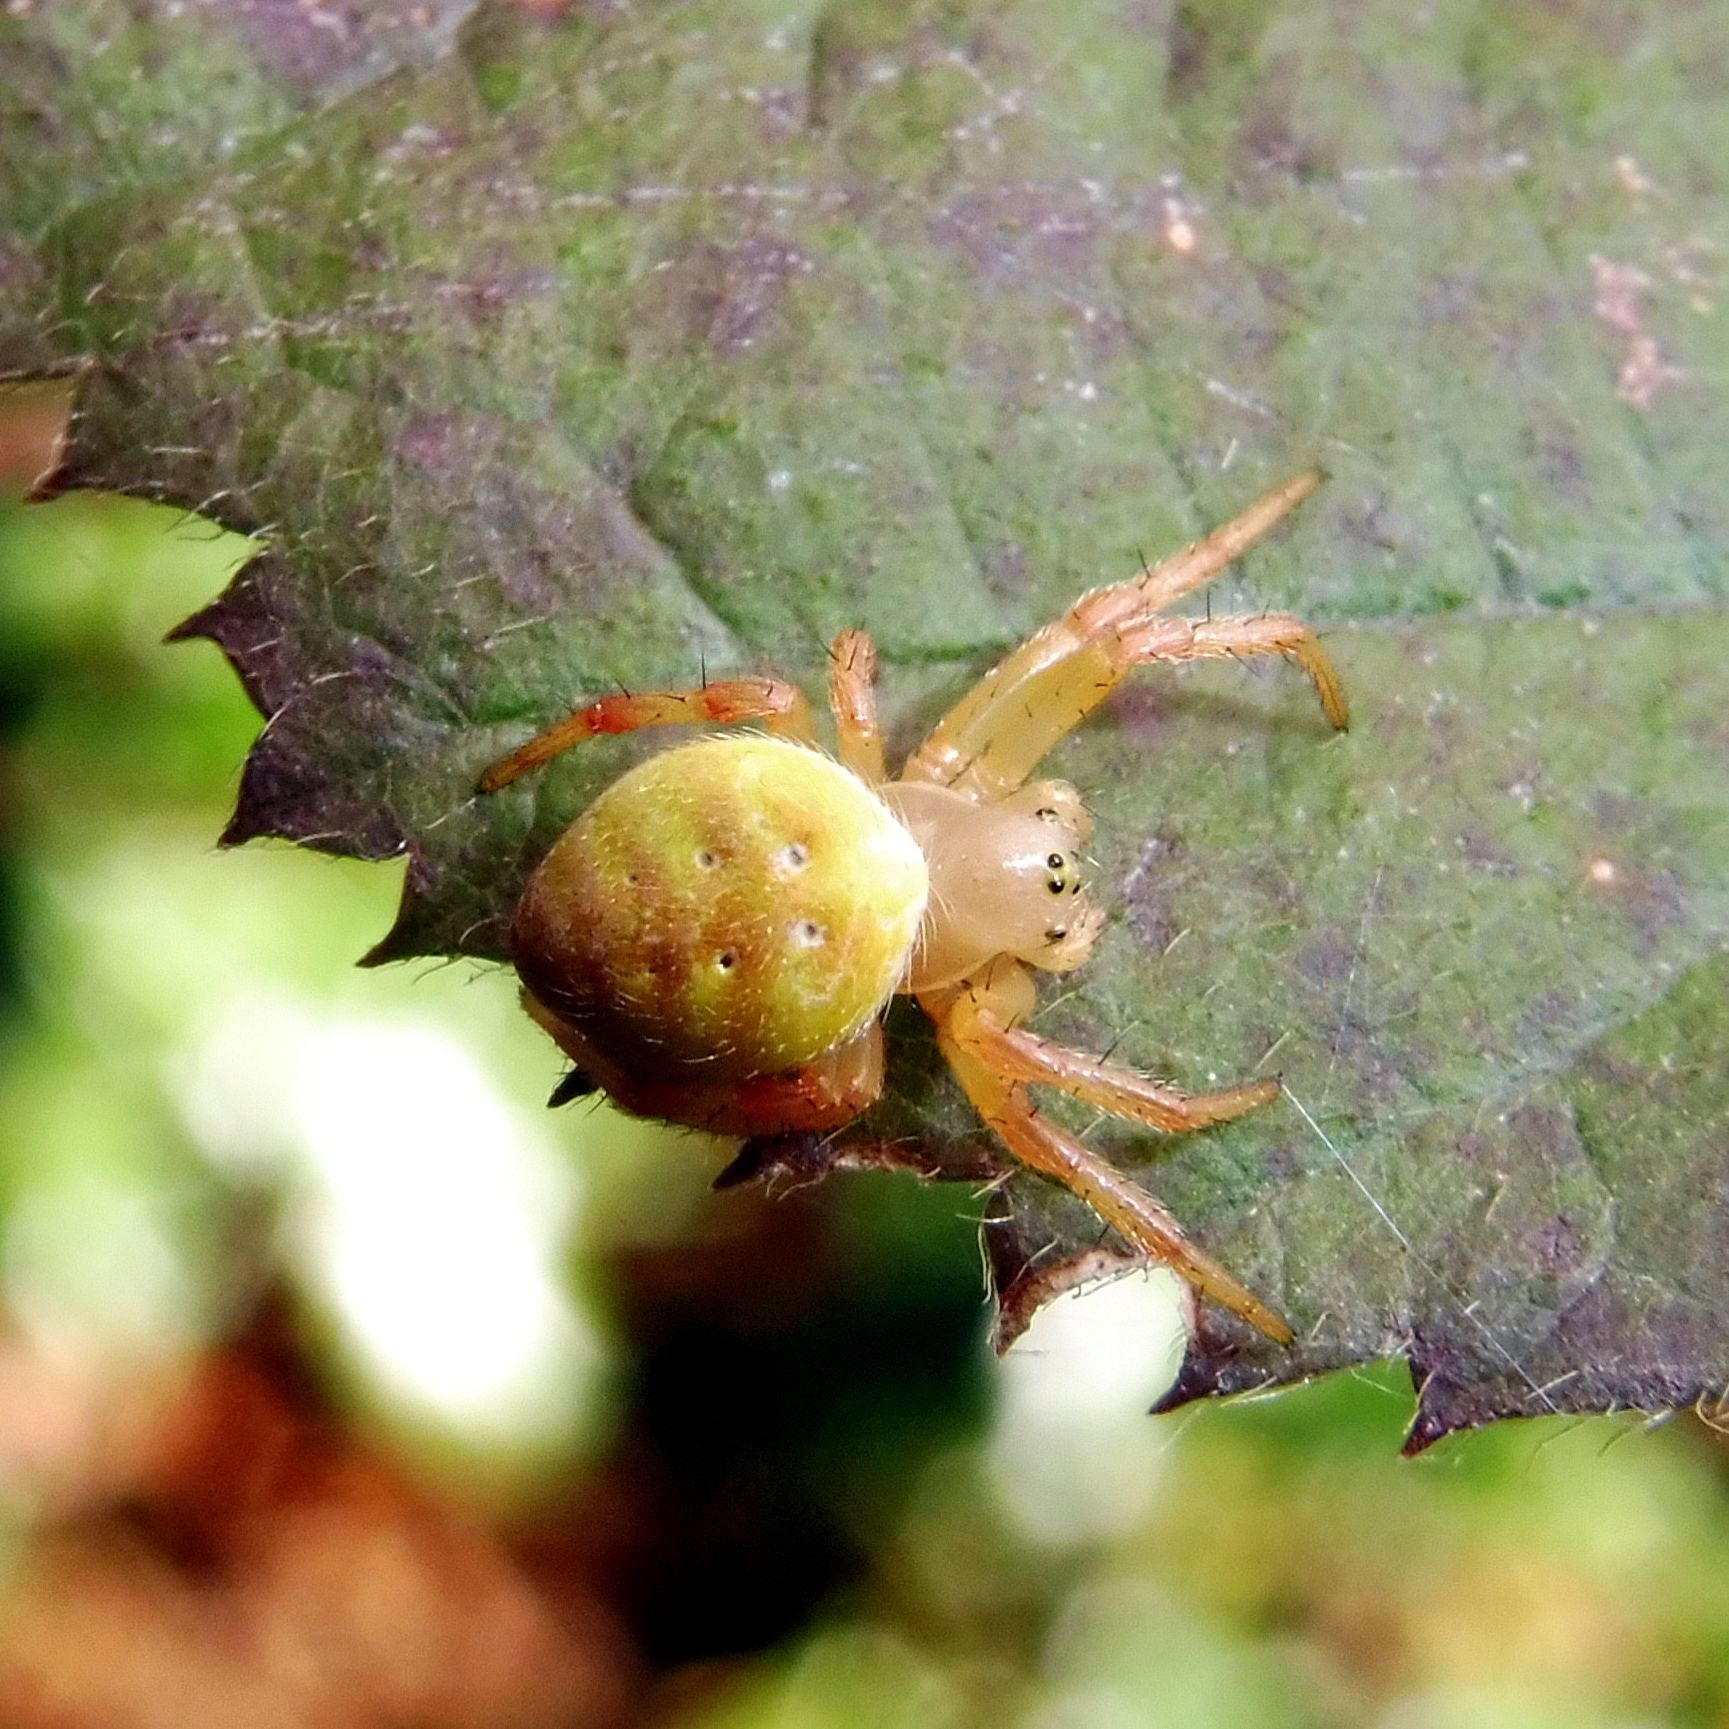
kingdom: Animalia
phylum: Arthropoda
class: Arachnida
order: Araneae
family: Araneidae
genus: Araniella
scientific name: Araniella
